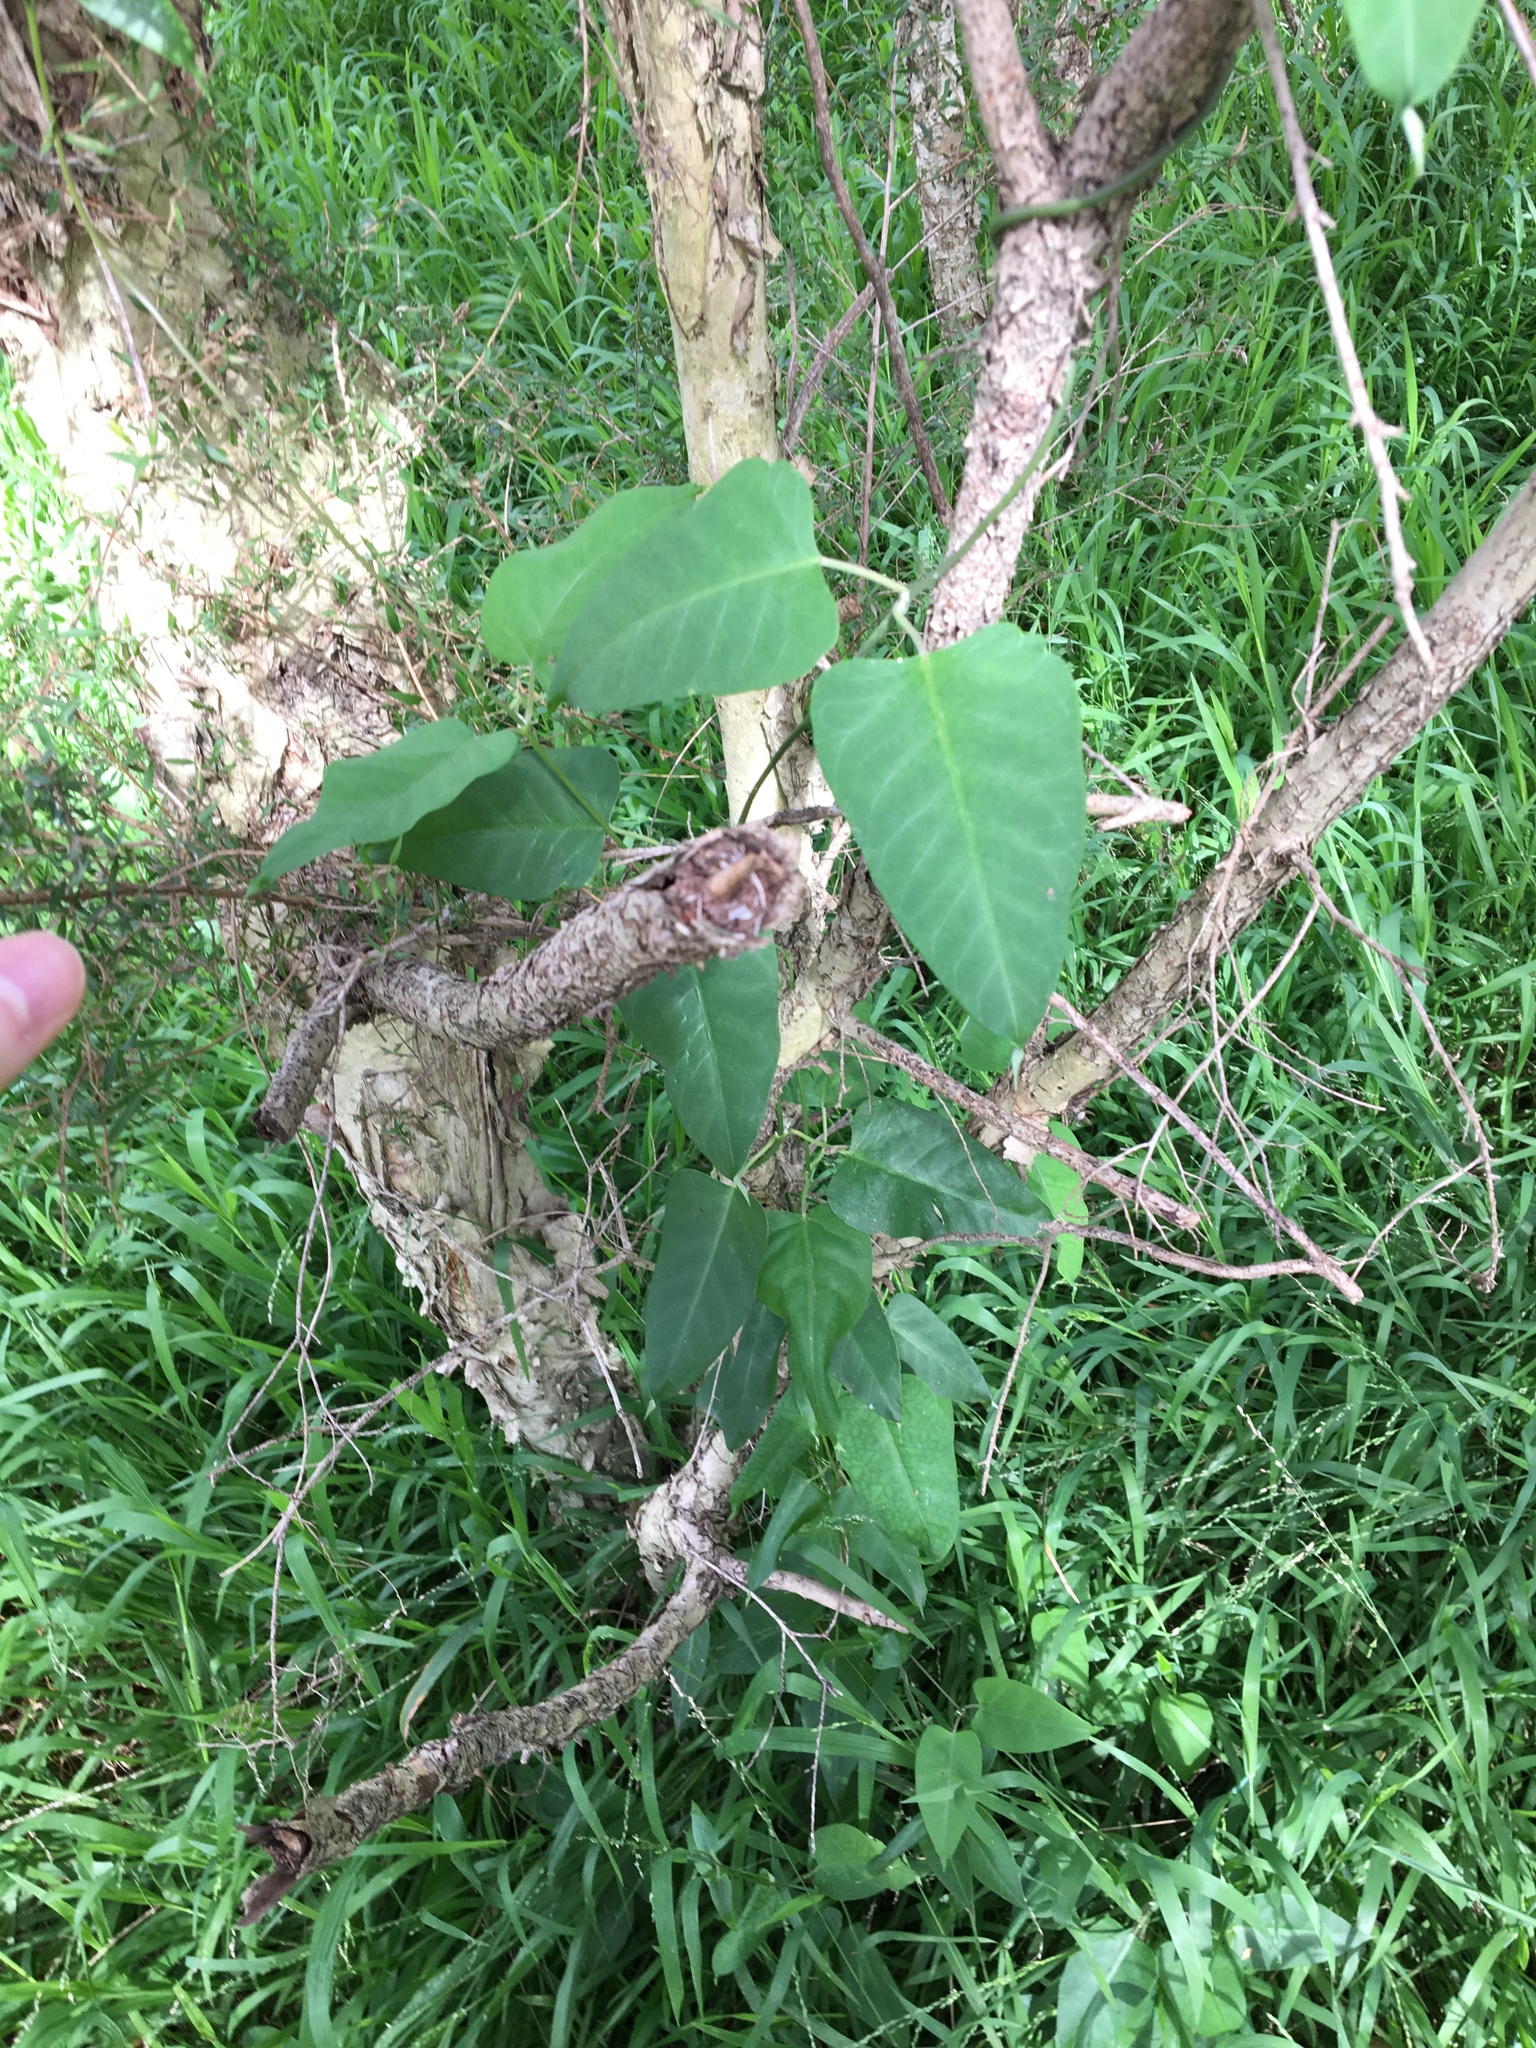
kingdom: Plantae
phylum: Tracheophyta
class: Magnoliopsida
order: Gentianales
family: Apocynaceae
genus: Araujia
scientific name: Araujia sericifera
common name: White bladderflower
